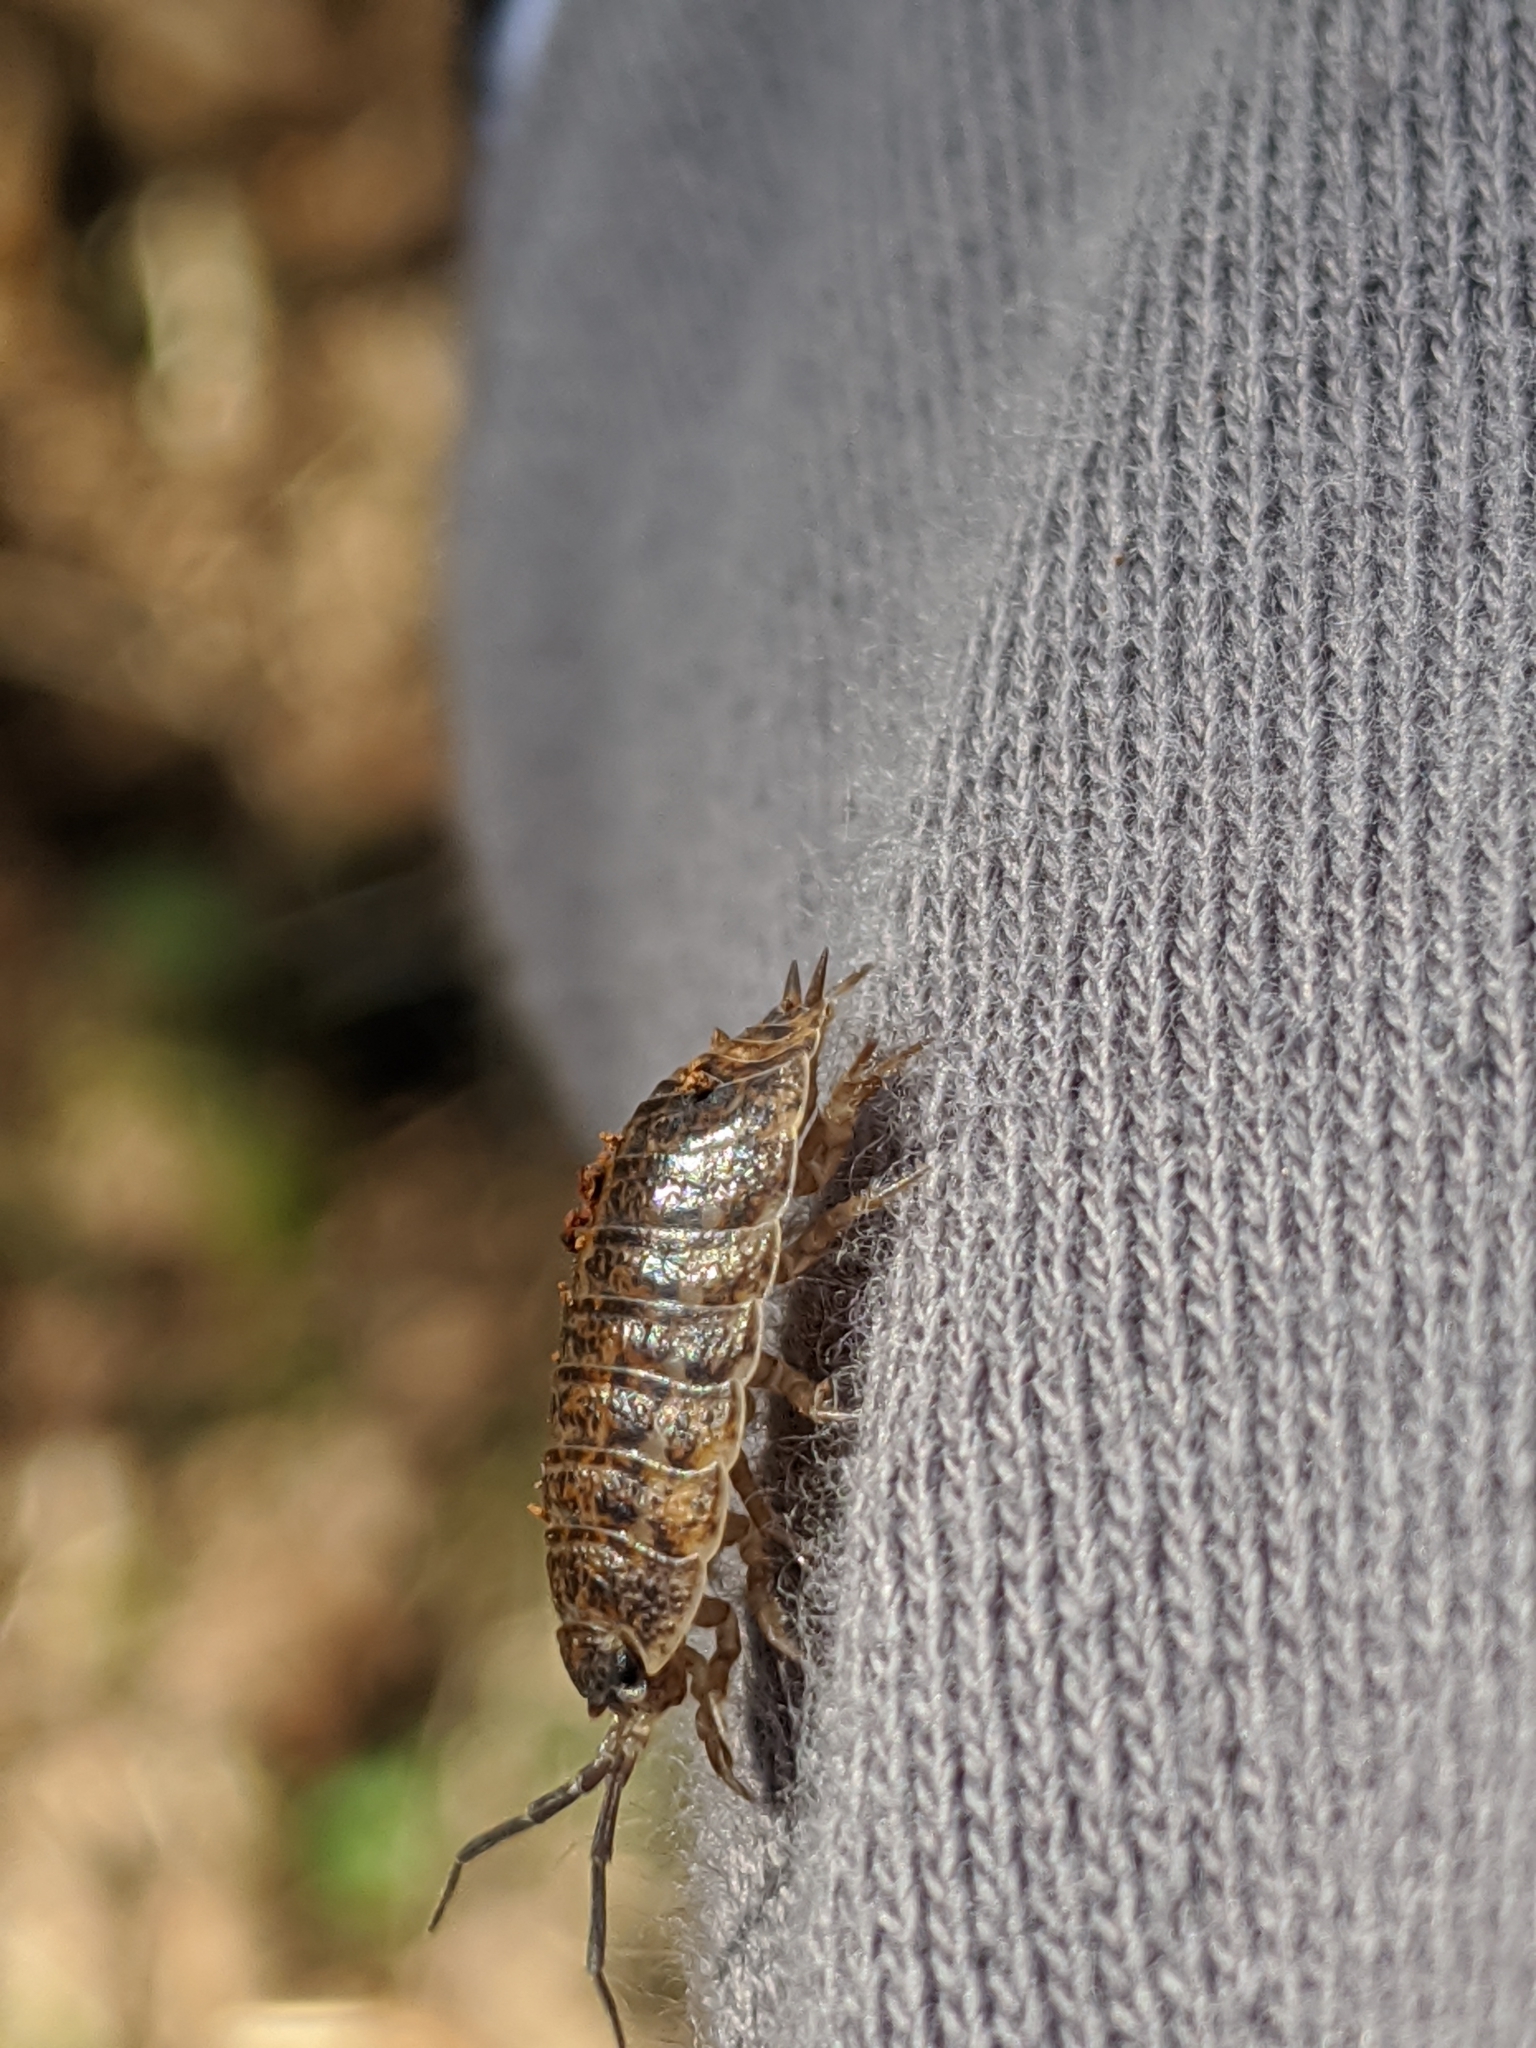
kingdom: Animalia
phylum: Arthropoda
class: Malacostraca
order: Isopoda
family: Trachelipodidae
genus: Trachelipus
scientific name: Trachelipus rathkii
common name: Isopod
